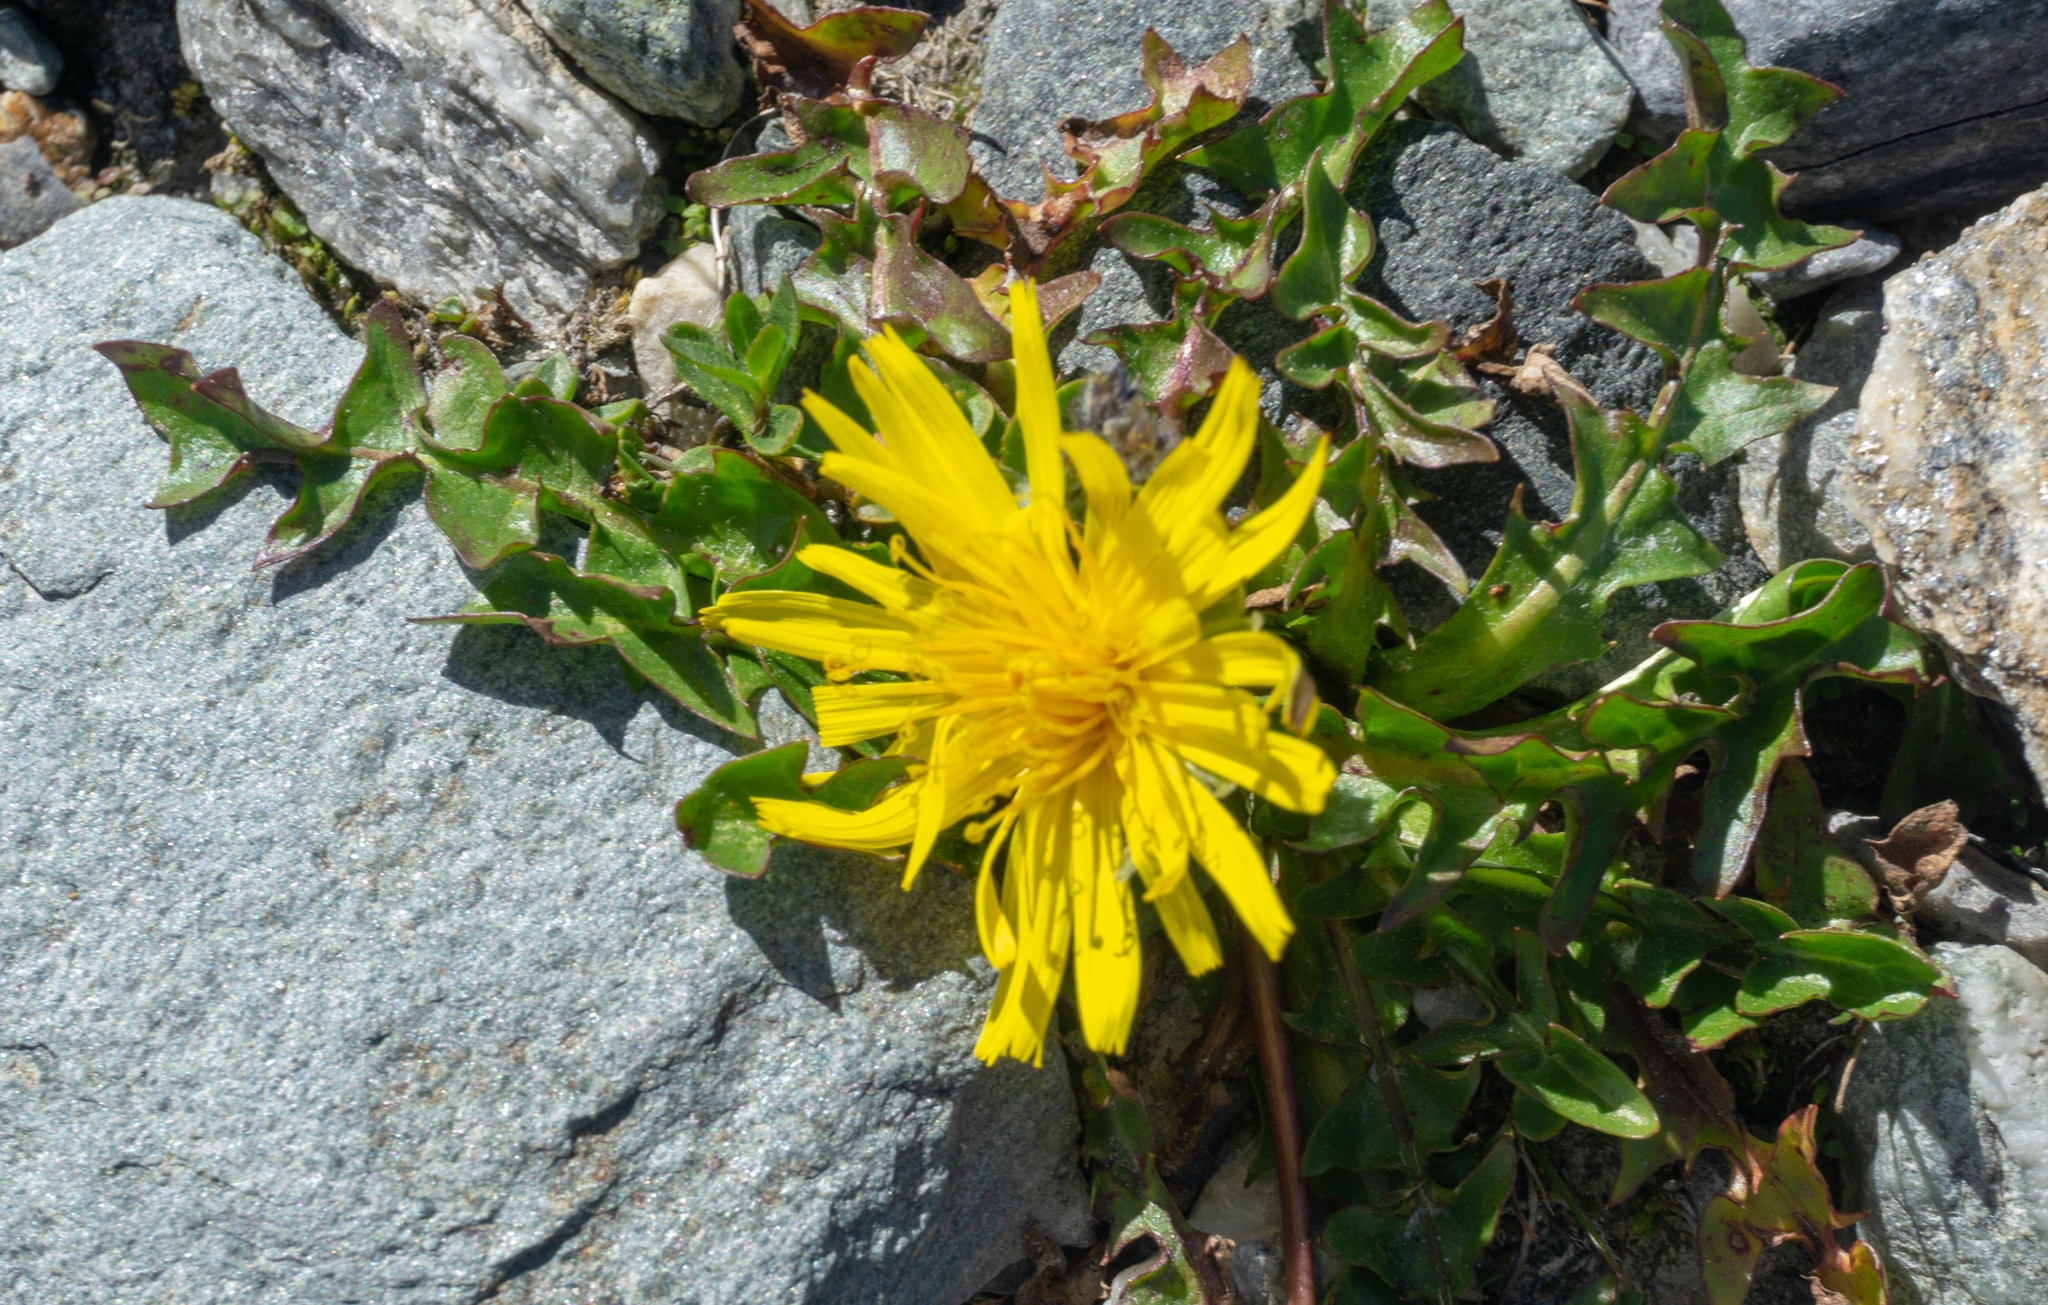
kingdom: Plantae
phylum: Tracheophyta
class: Magnoliopsida
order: Asterales
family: Asteraceae
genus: Taraxacum
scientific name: Taraxacum erythrospermum
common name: Rock dandelion
